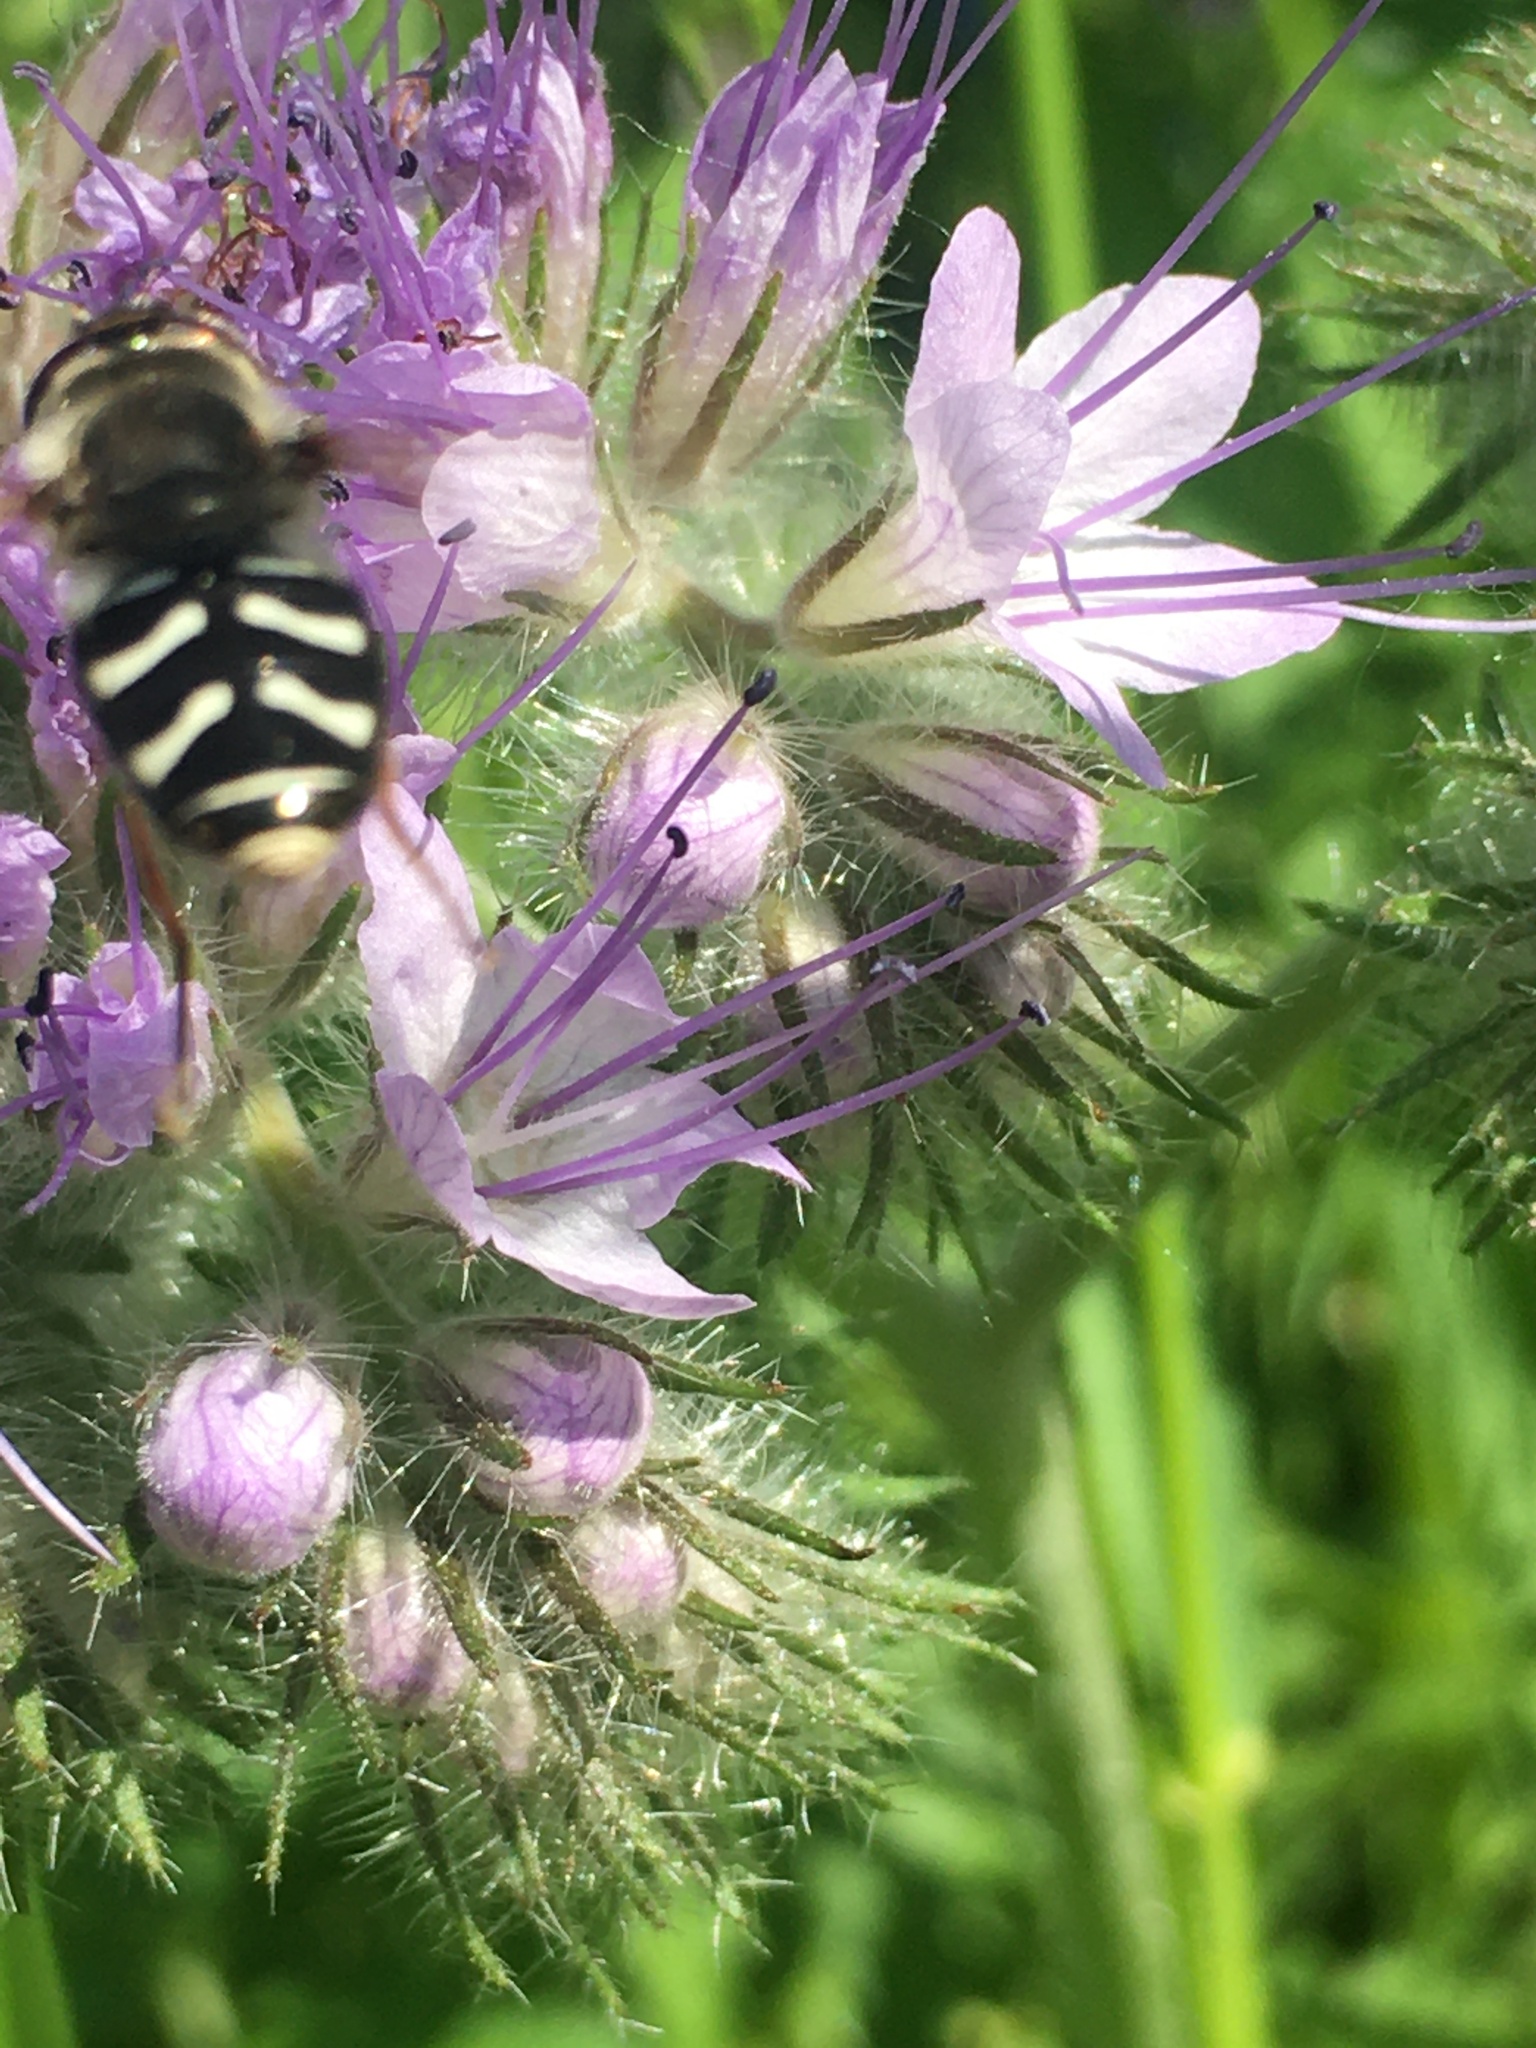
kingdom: Animalia
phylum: Arthropoda
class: Insecta
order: Diptera
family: Syrphidae
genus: Scaeva
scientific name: Scaeva affinis
